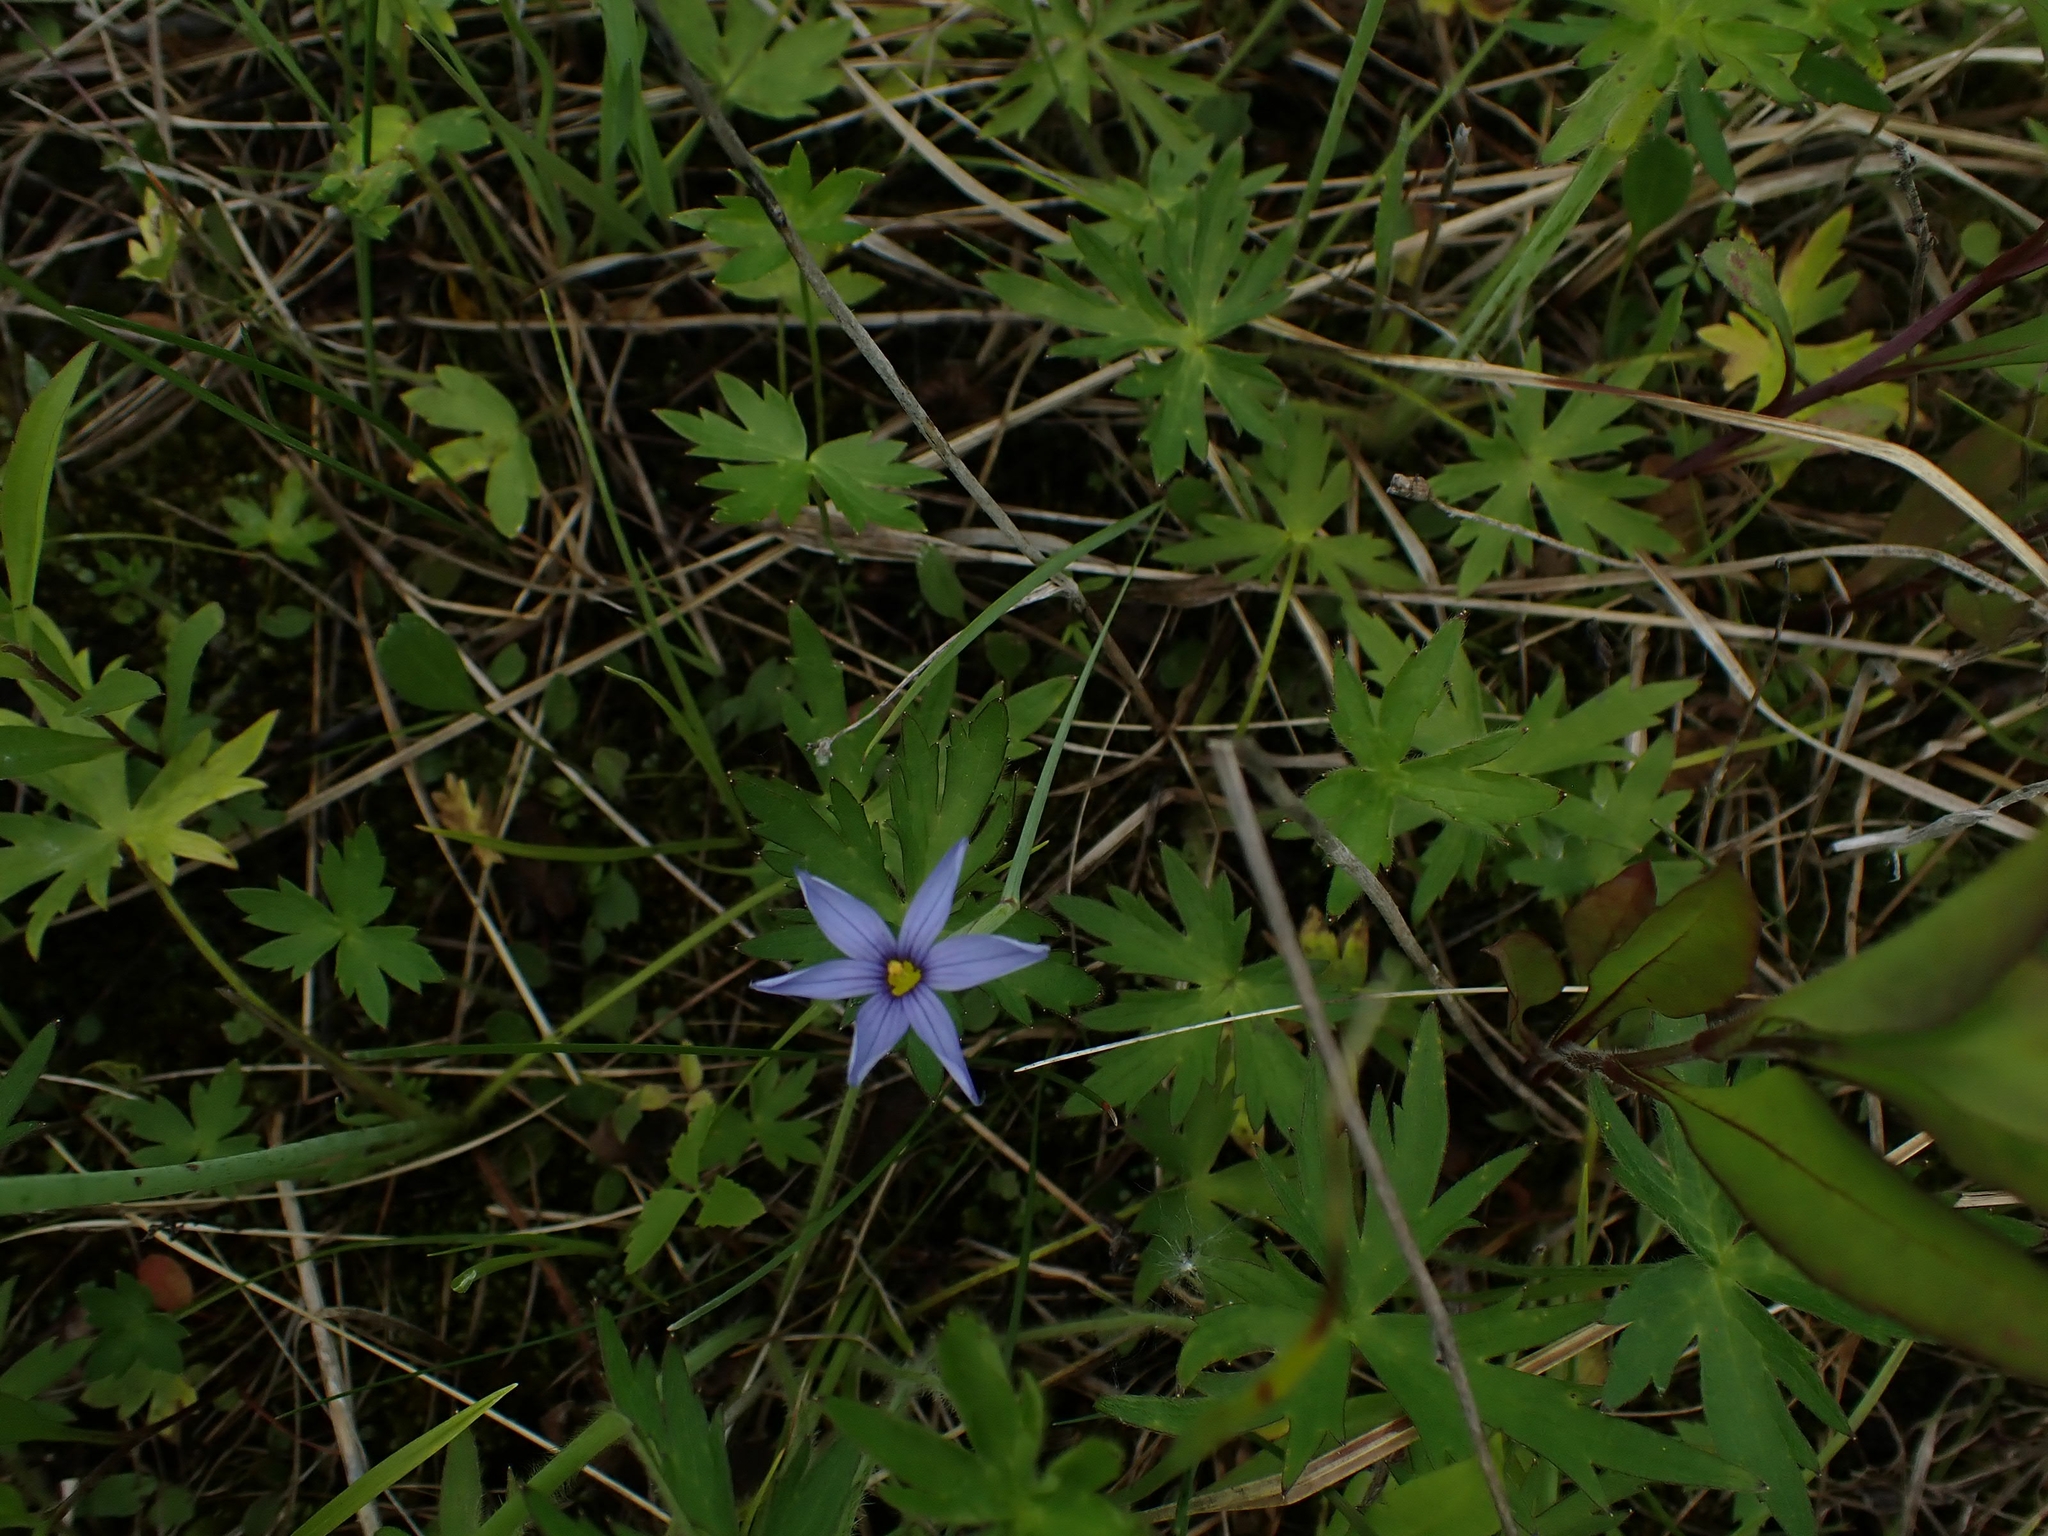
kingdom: Plantae
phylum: Tracheophyta
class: Liliopsida
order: Asparagales
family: Iridaceae
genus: Sisyrinchium
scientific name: Sisyrinchium montanum
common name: American blue-eyed-grass
